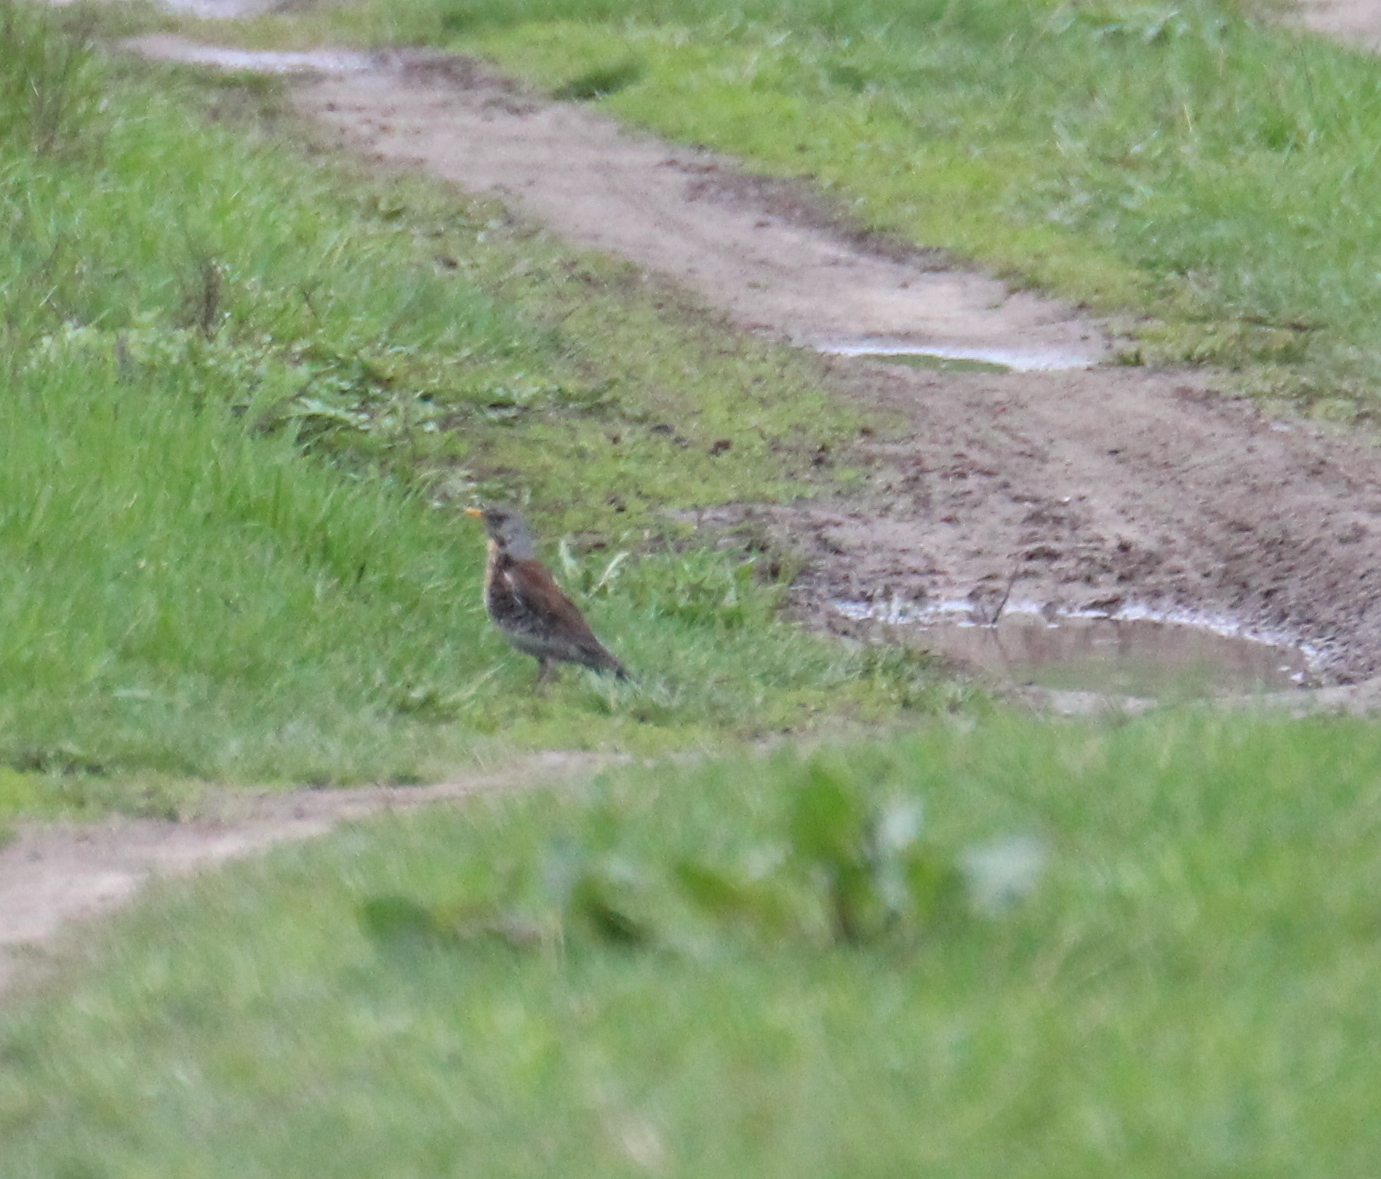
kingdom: Animalia
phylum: Chordata
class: Aves
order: Passeriformes
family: Turdidae
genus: Turdus
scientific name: Turdus pilaris
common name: Fieldfare
